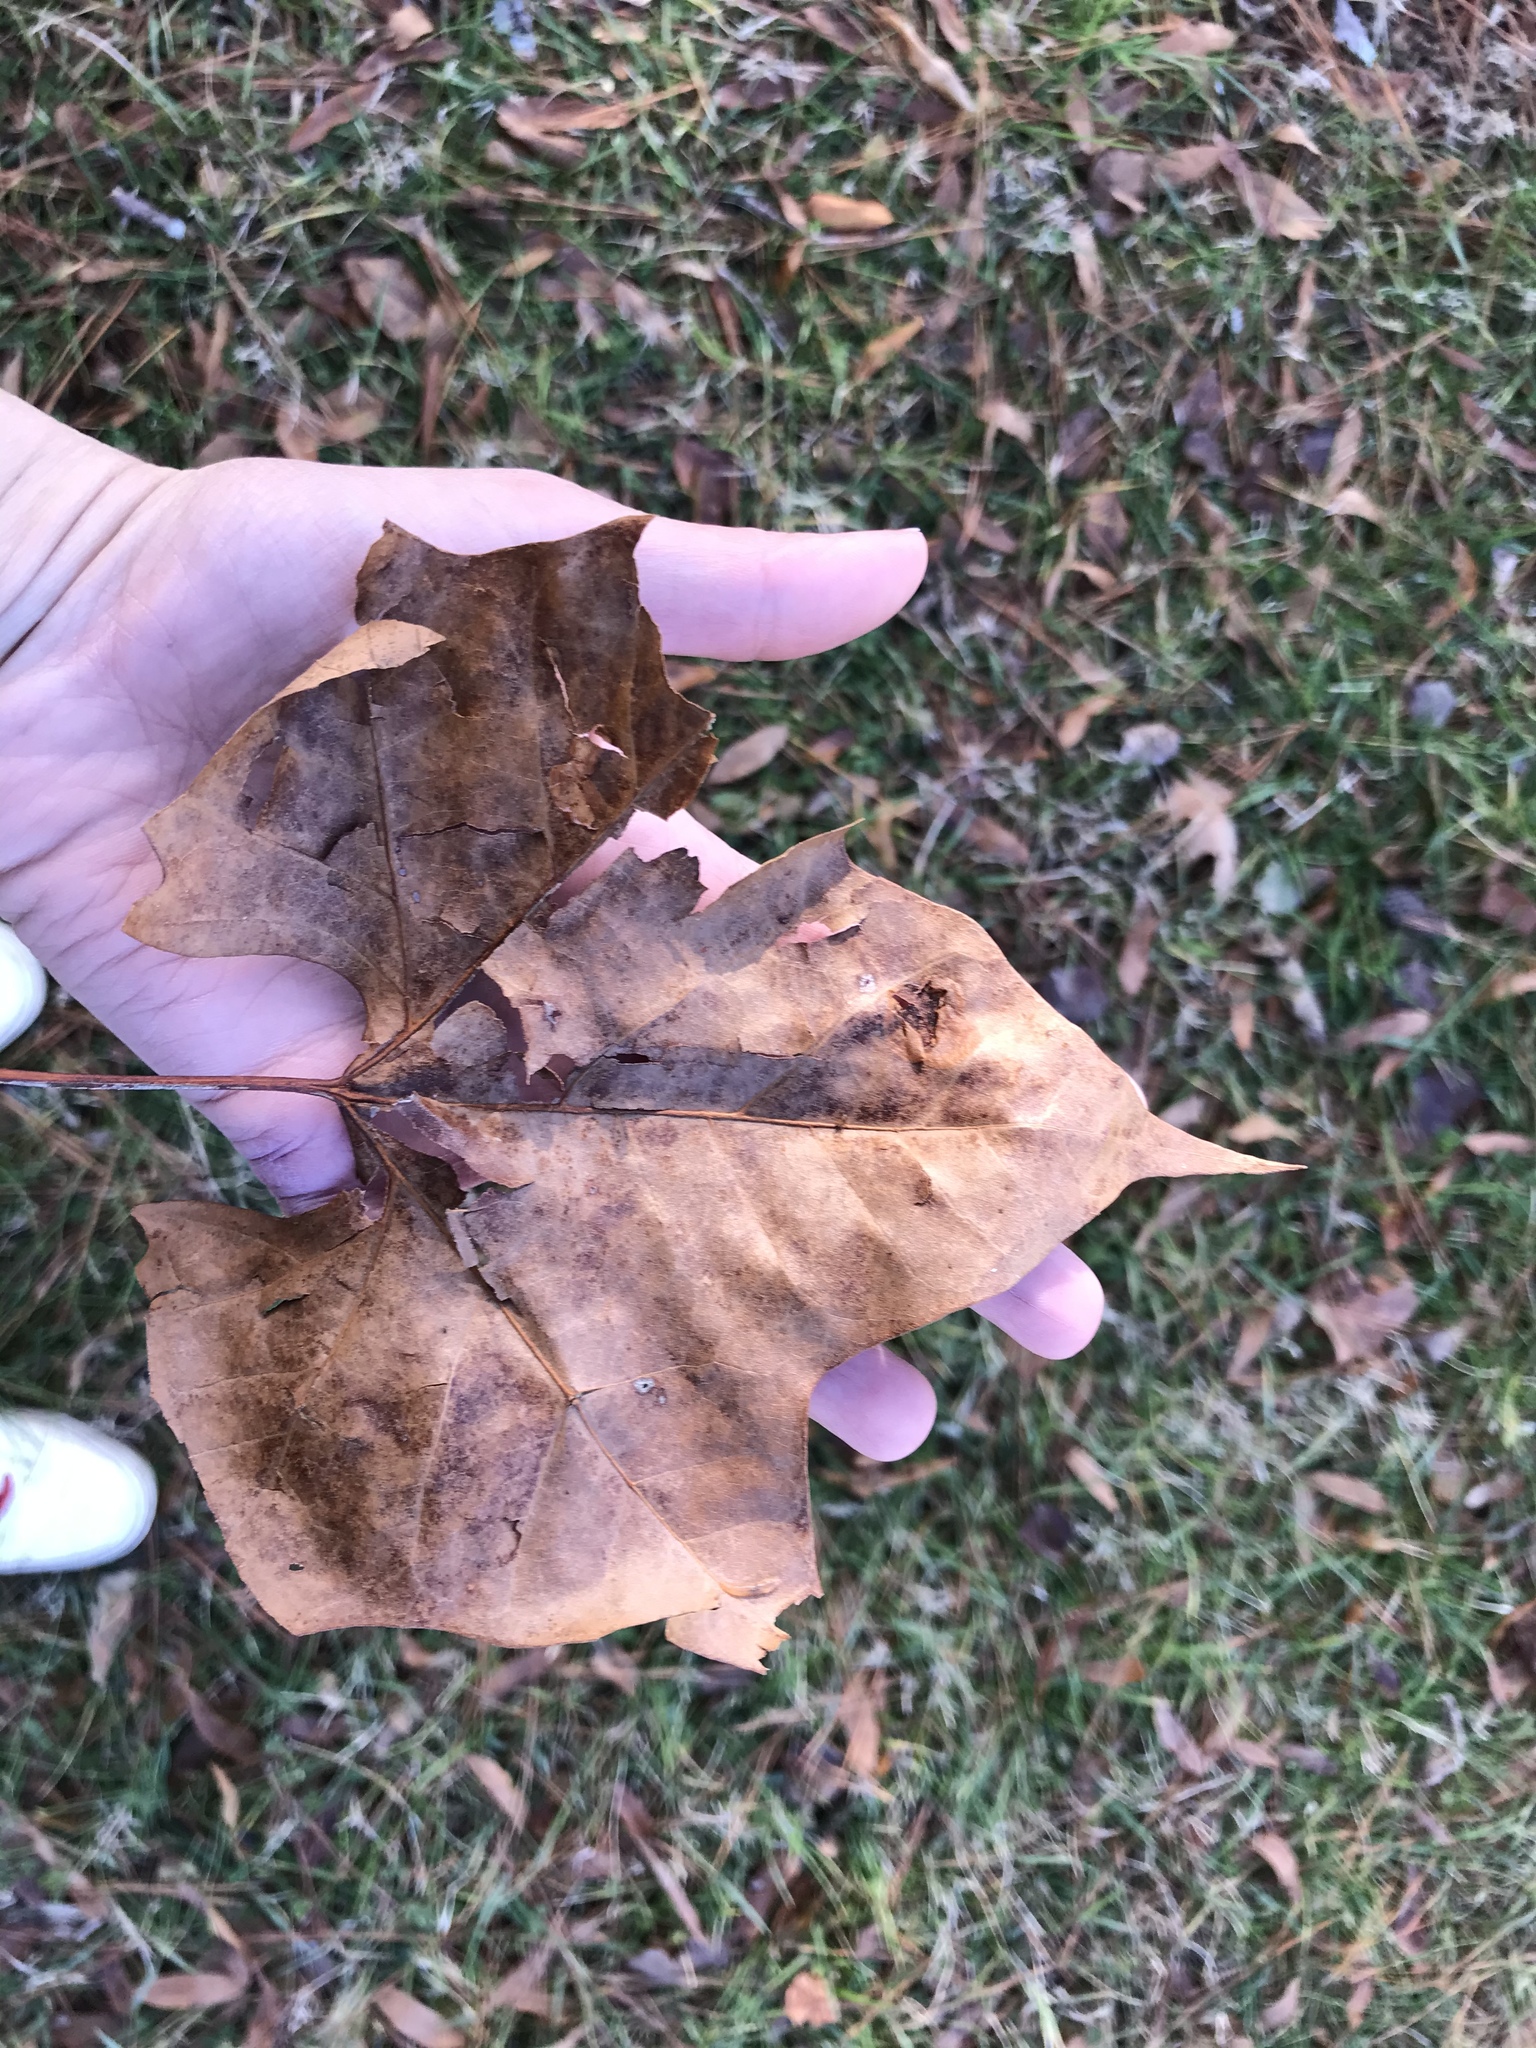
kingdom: Plantae
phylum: Tracheophyta
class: Magnoliopsida
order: Proteales
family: Platanaceae
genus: Platanus
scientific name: Platanus occidentalis
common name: American sycamore
